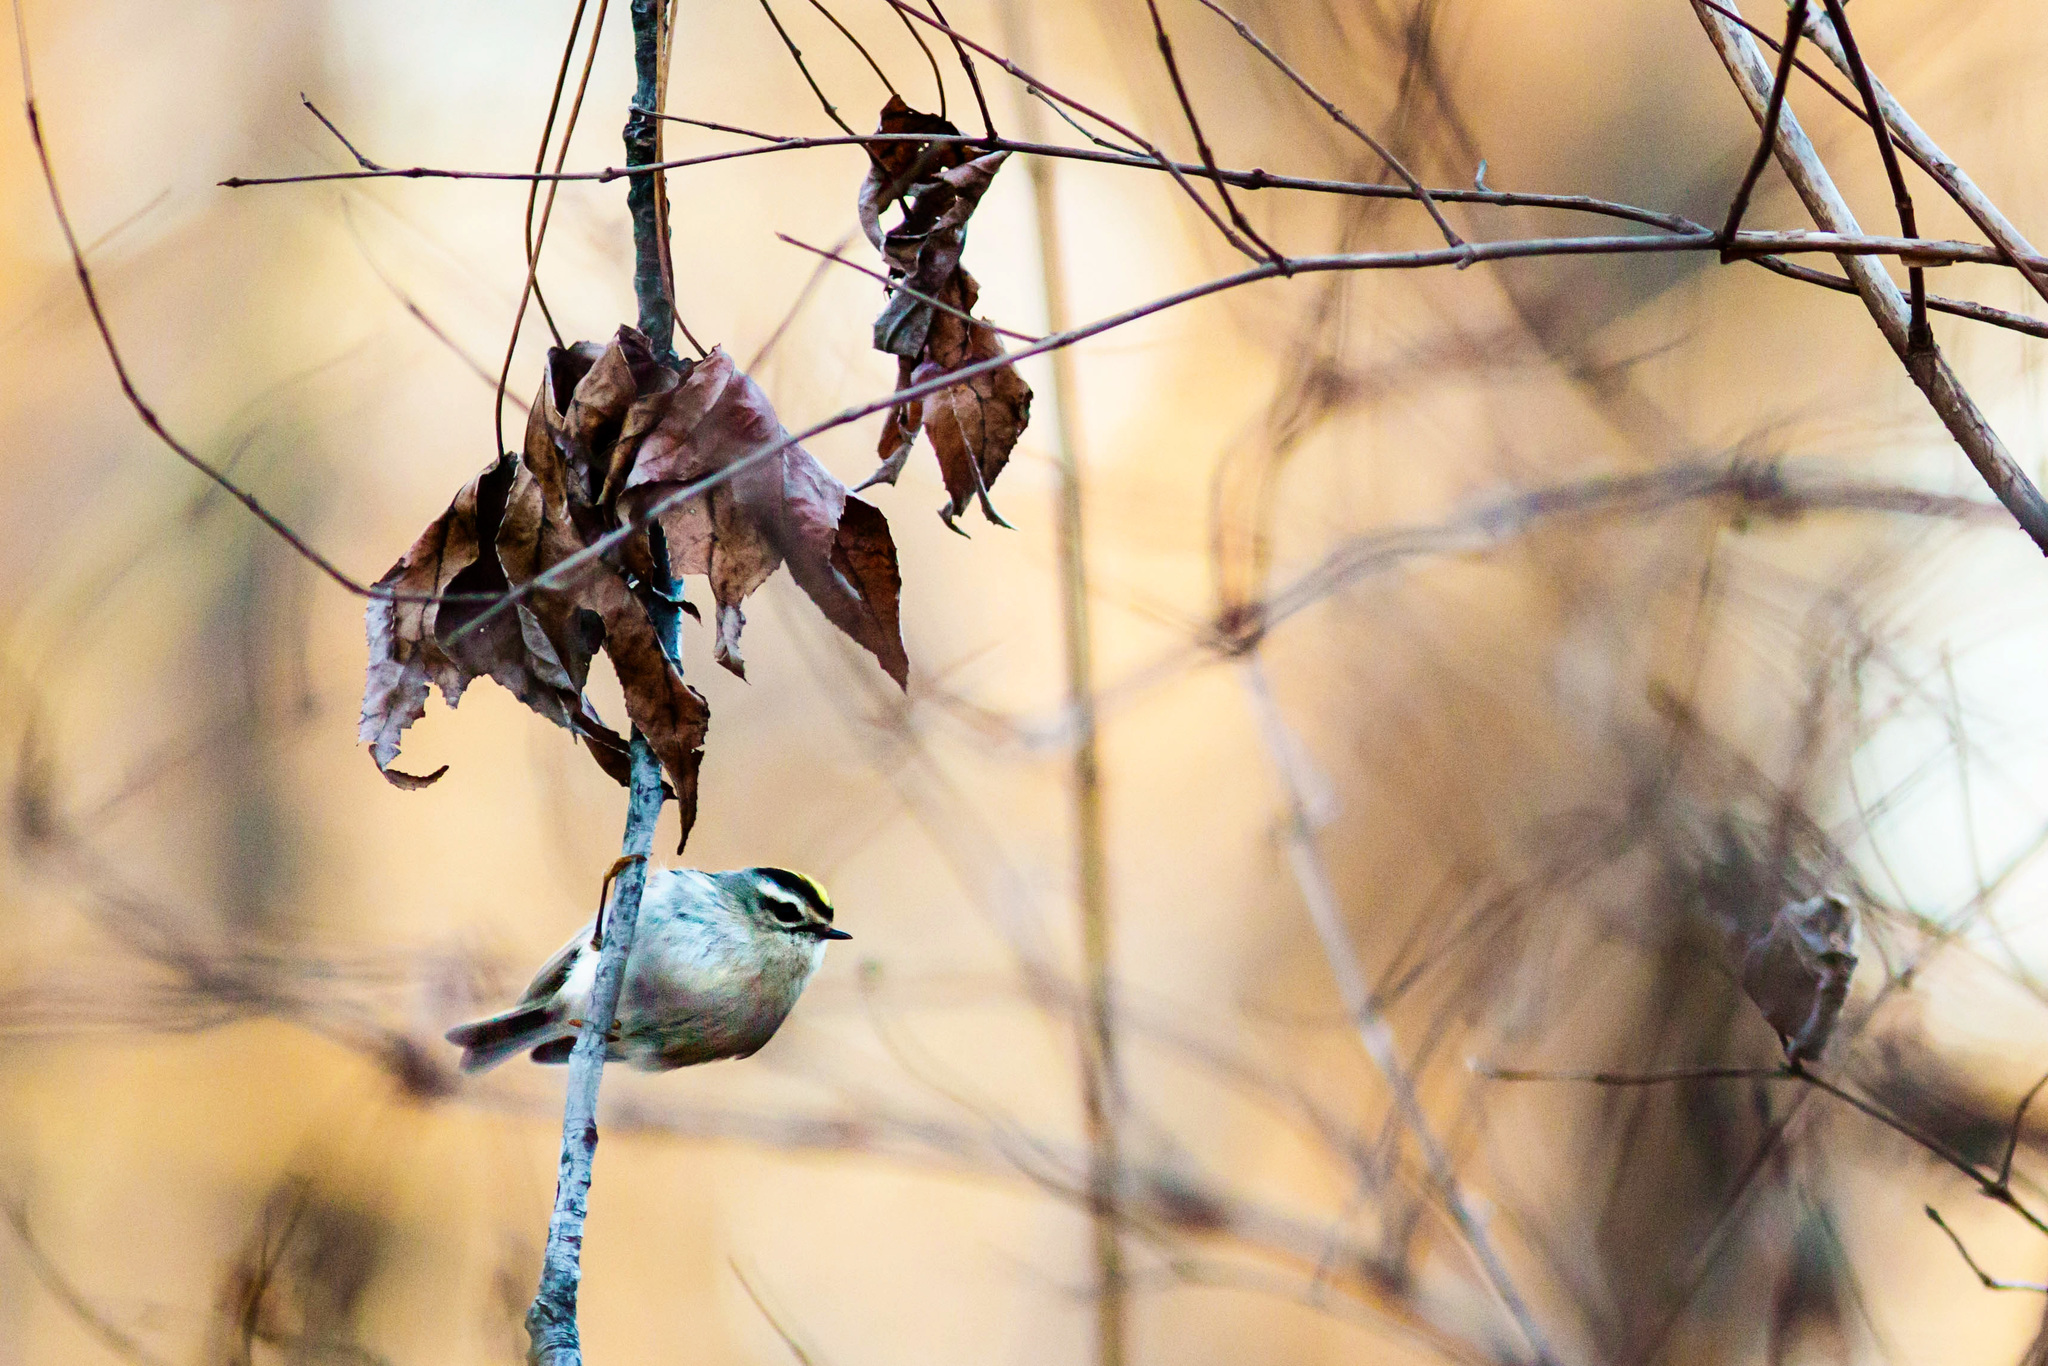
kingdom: Animalia
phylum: Chordata
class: Aves
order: Passeriformes
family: Regulidae
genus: Regulus
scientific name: Regulus satrapa
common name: Golden-crowned kinglet
